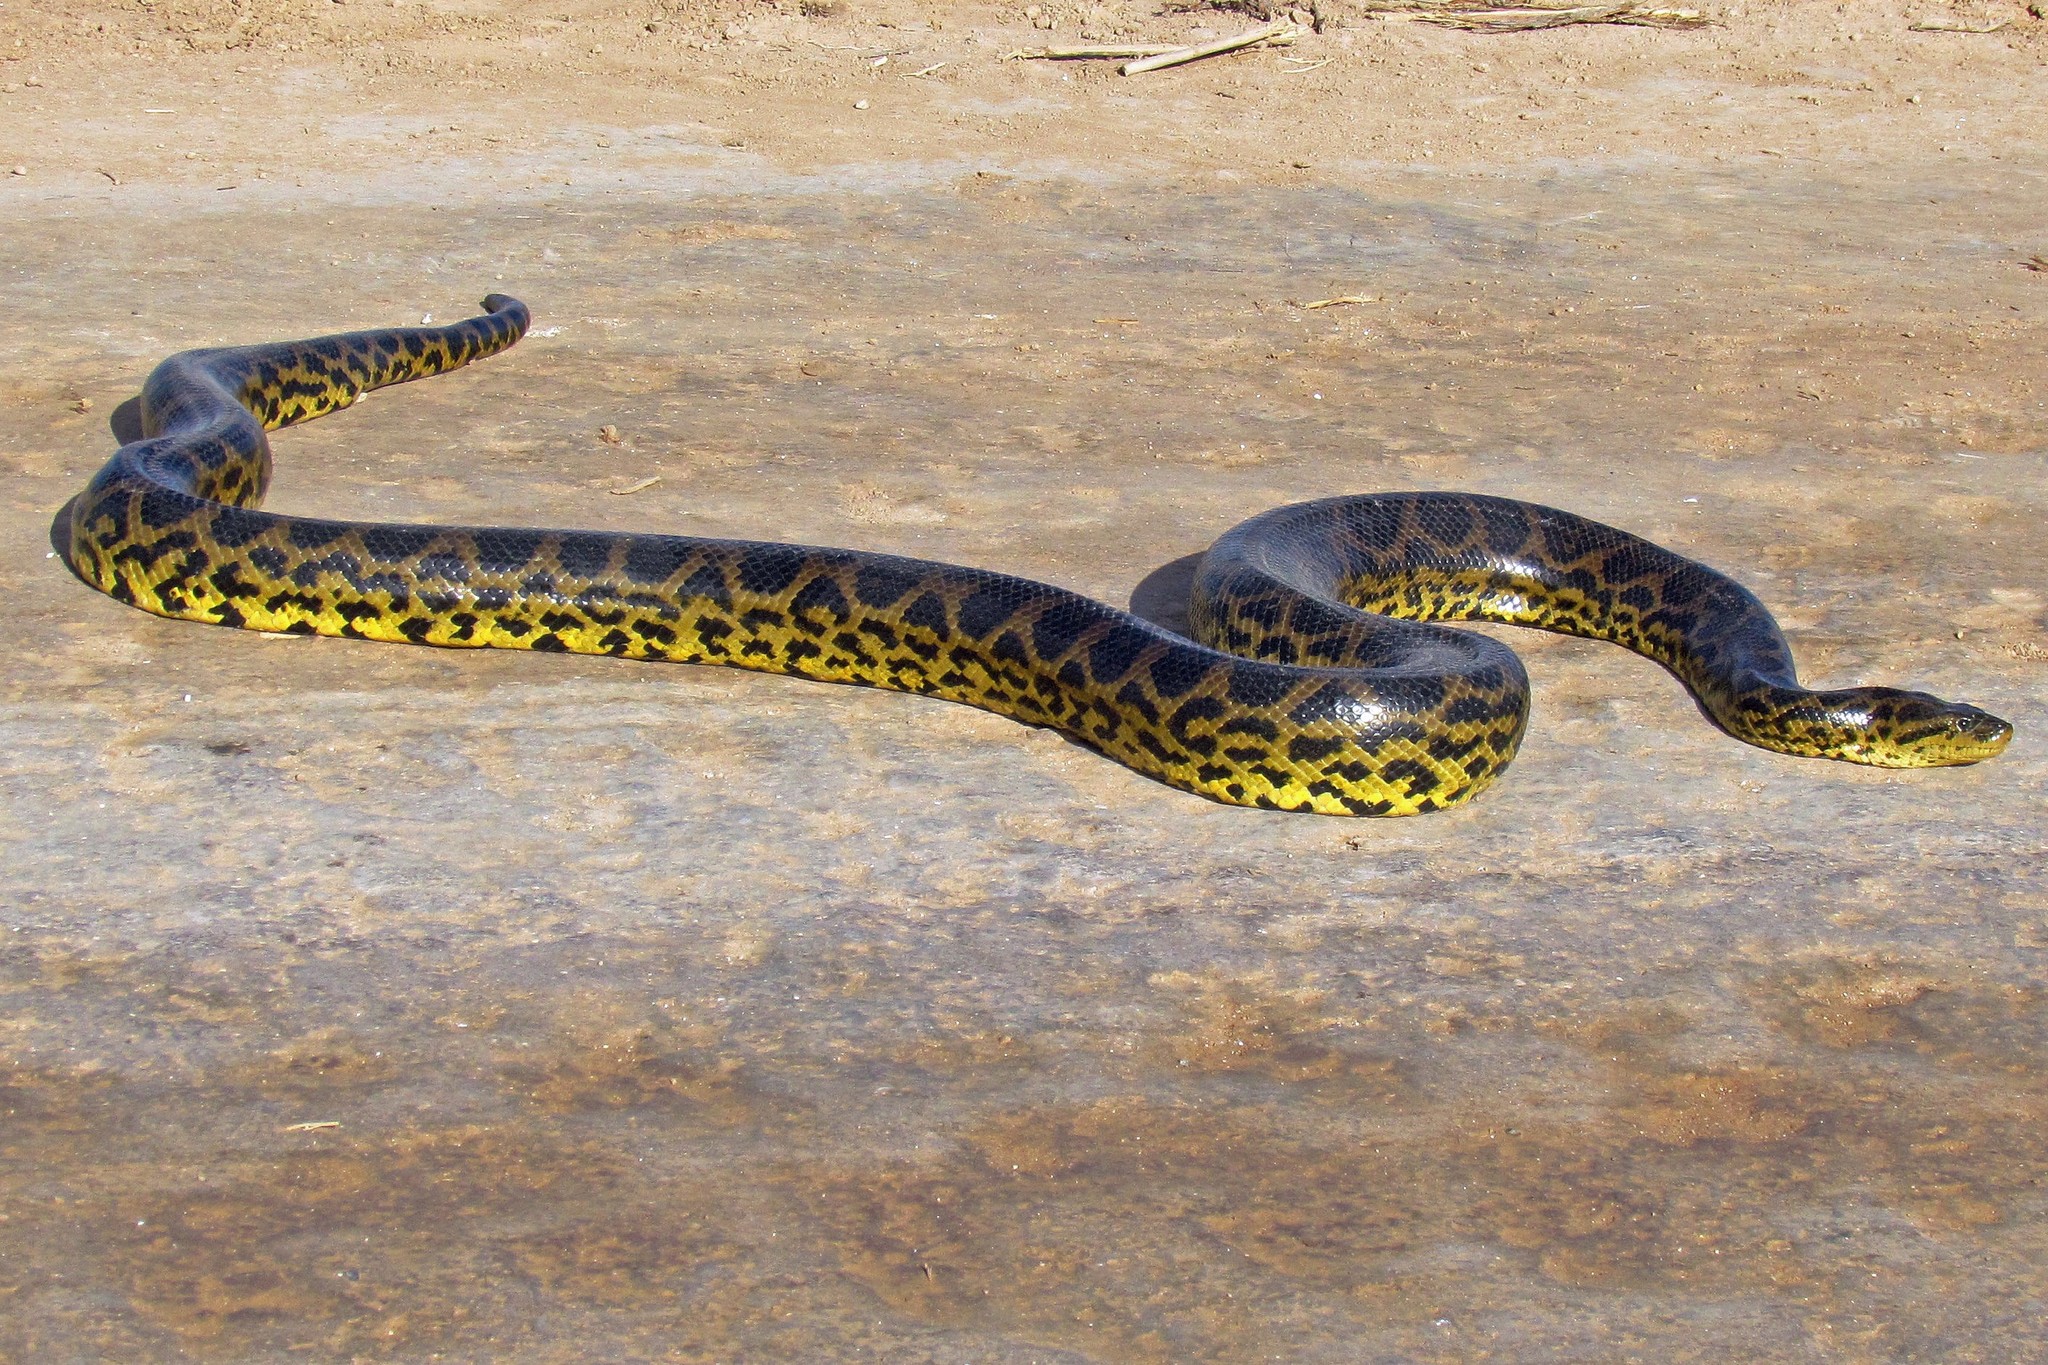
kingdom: Animalia
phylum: Chordata
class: Squamata
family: Boidae
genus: Eunectes
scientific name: Eunectes notaeus
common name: Yellow anaconda
